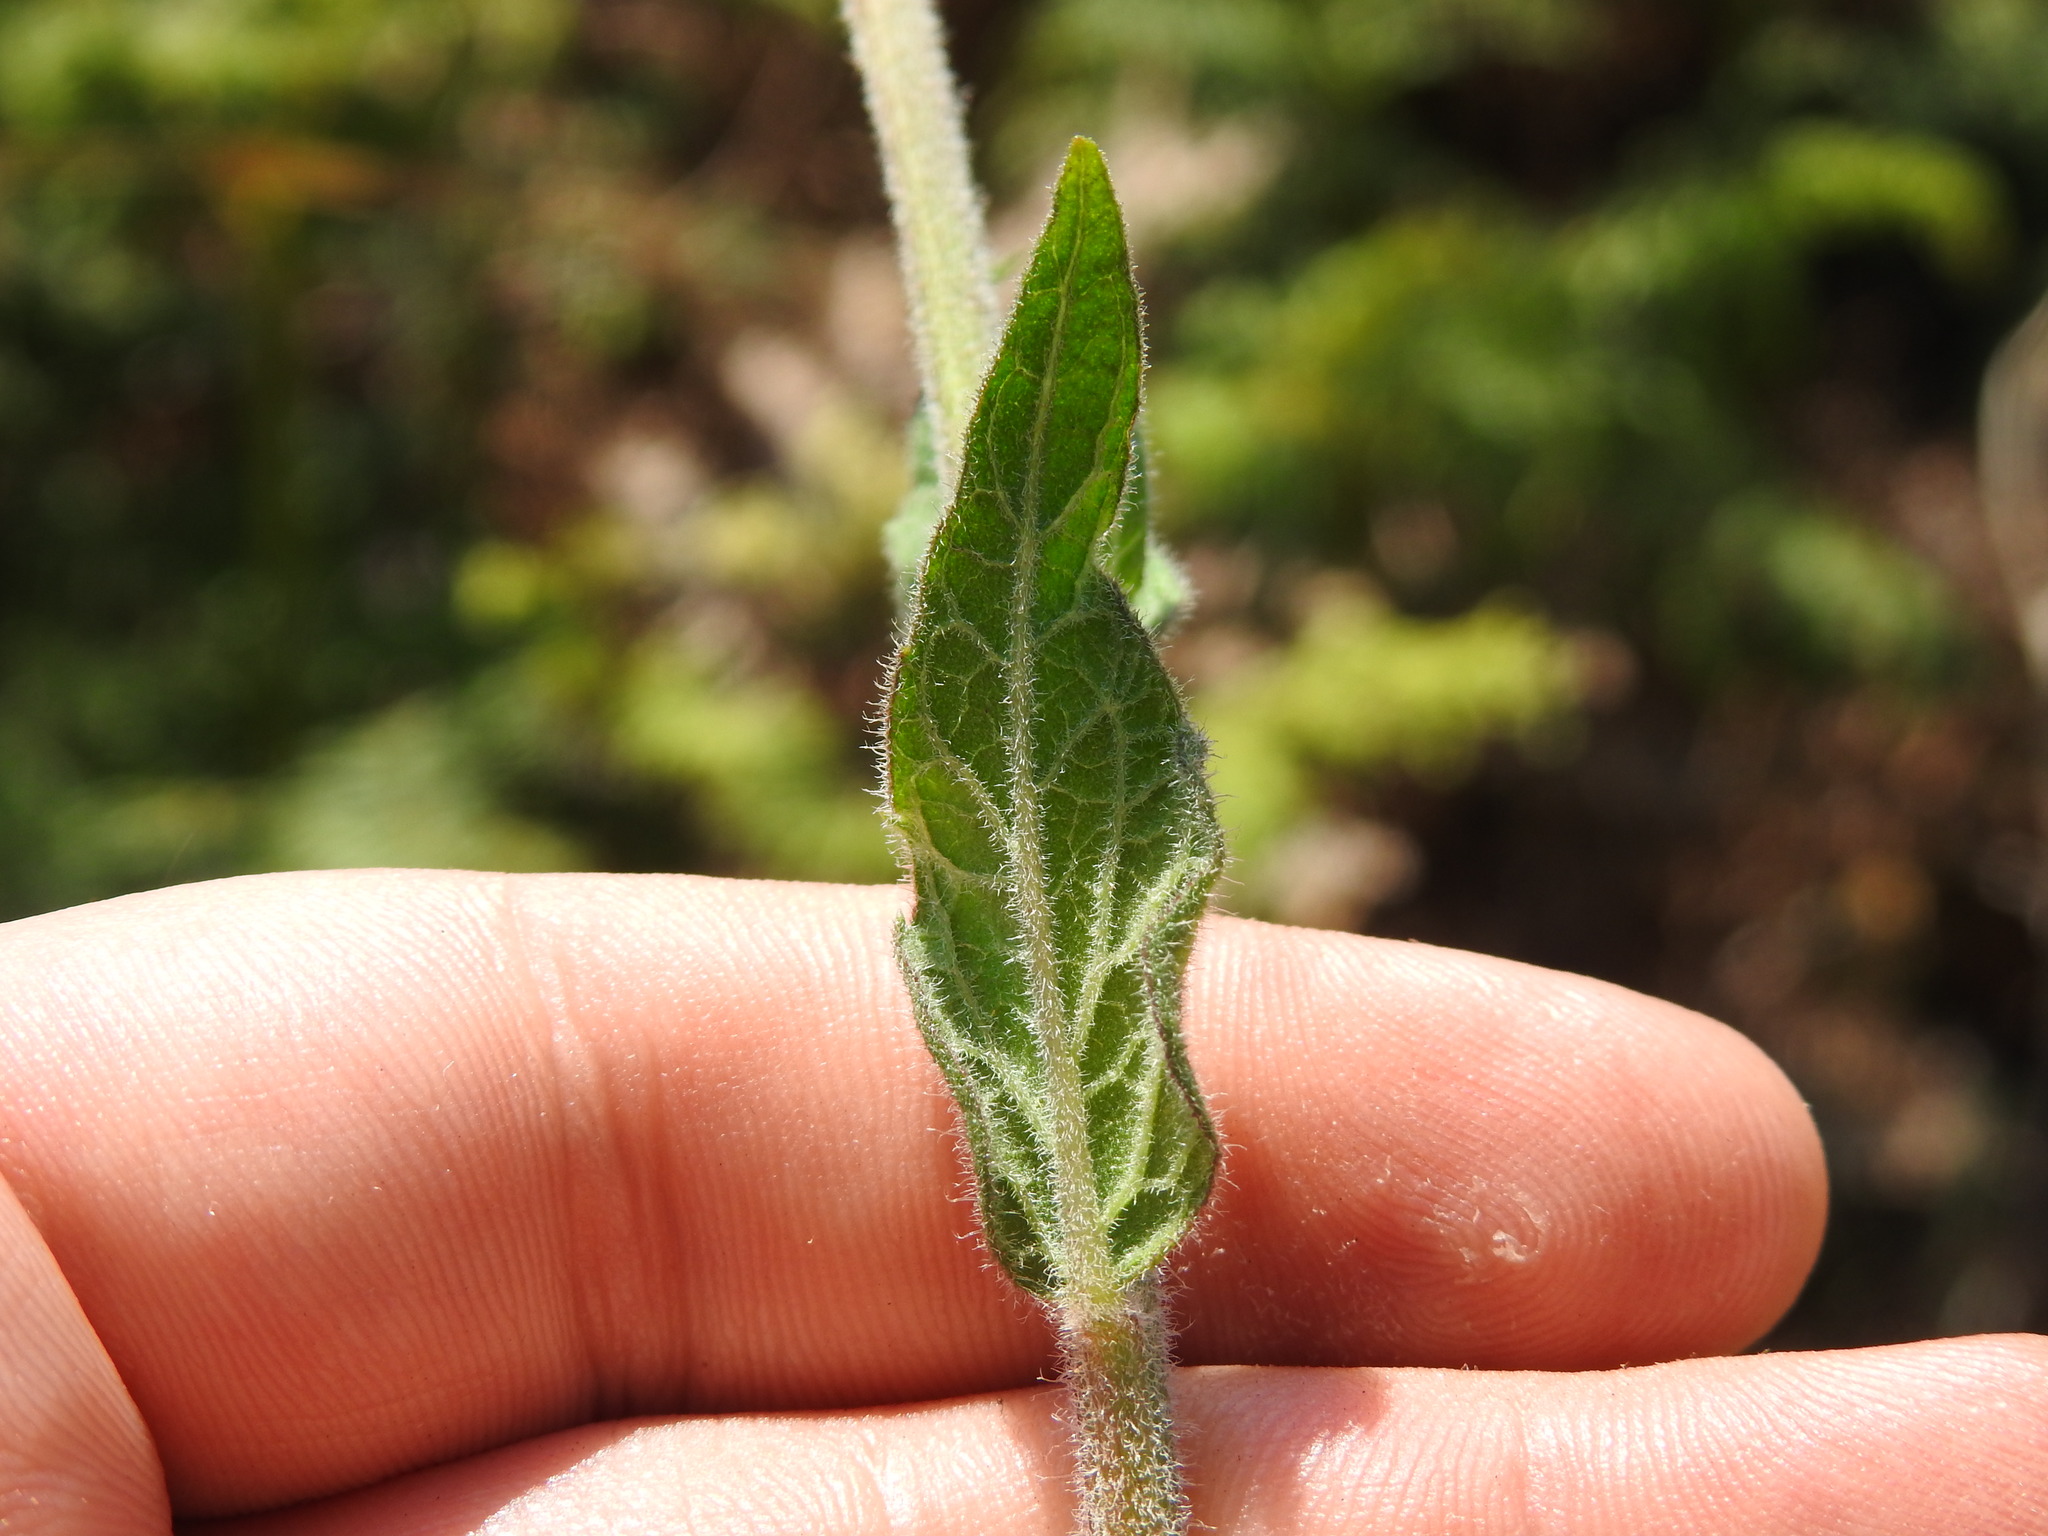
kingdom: Plantae
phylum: Tracheophyta
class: Magnoliopsida
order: Asterales
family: Asteraceae
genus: Hilliardiella
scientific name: Hilliardiella sutherlandii
